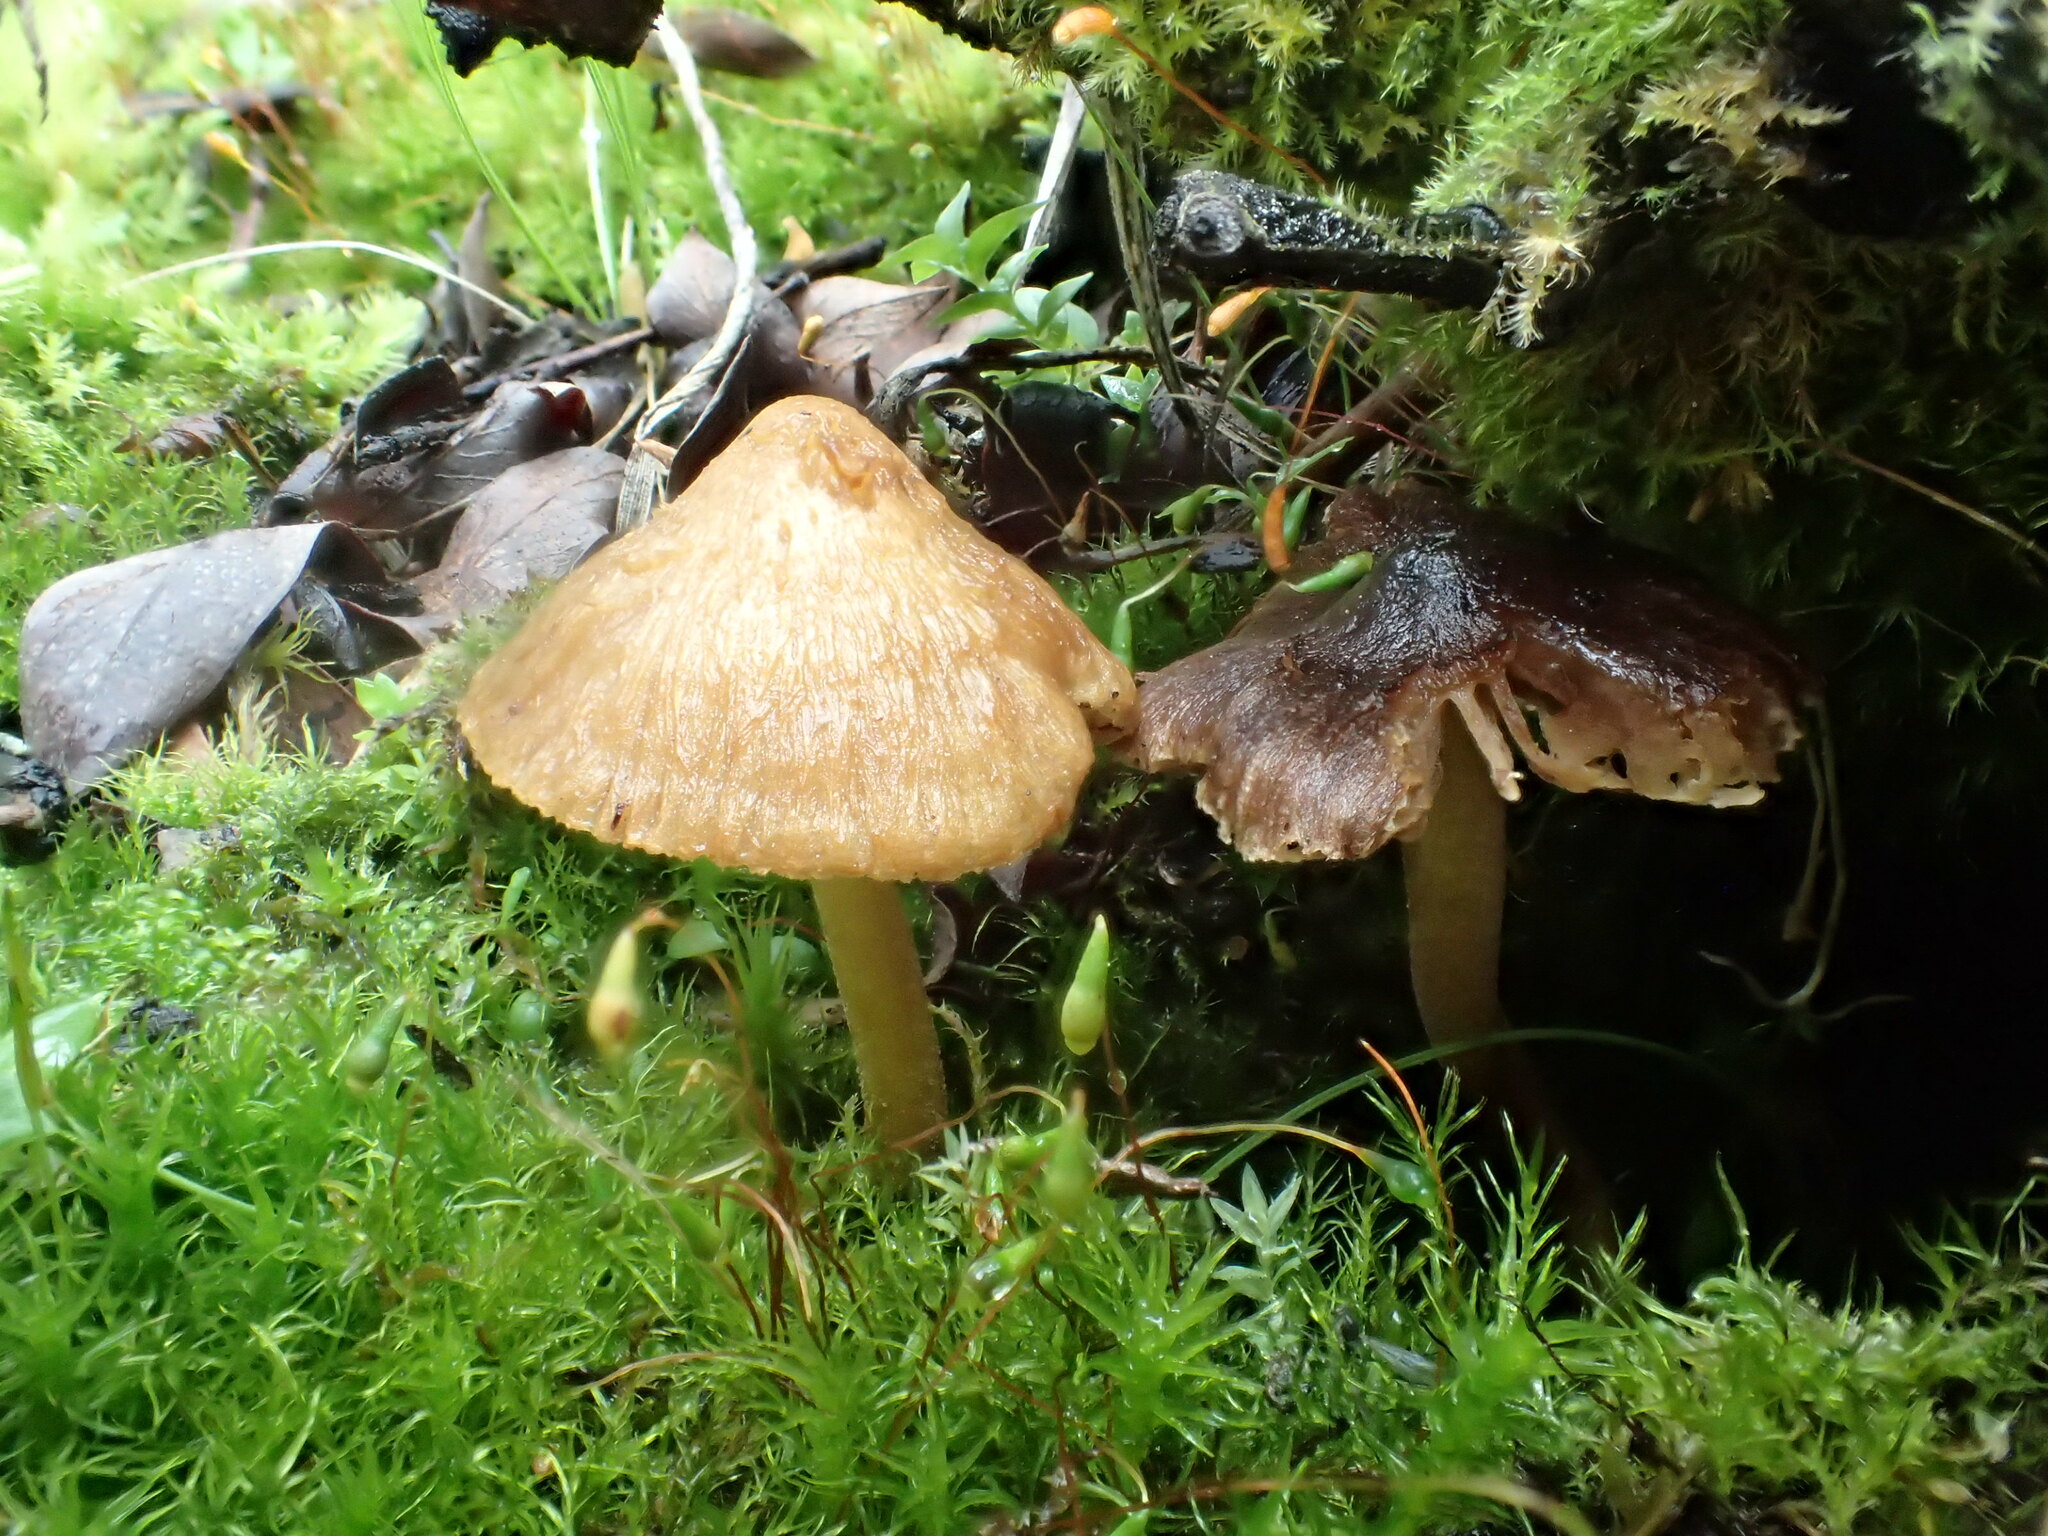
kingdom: Fungi
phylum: Basidiomycota
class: Agaricomycetes
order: Agaricales
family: Inocybaceae
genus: Inocybe
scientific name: Inocybe obtusiuscula
